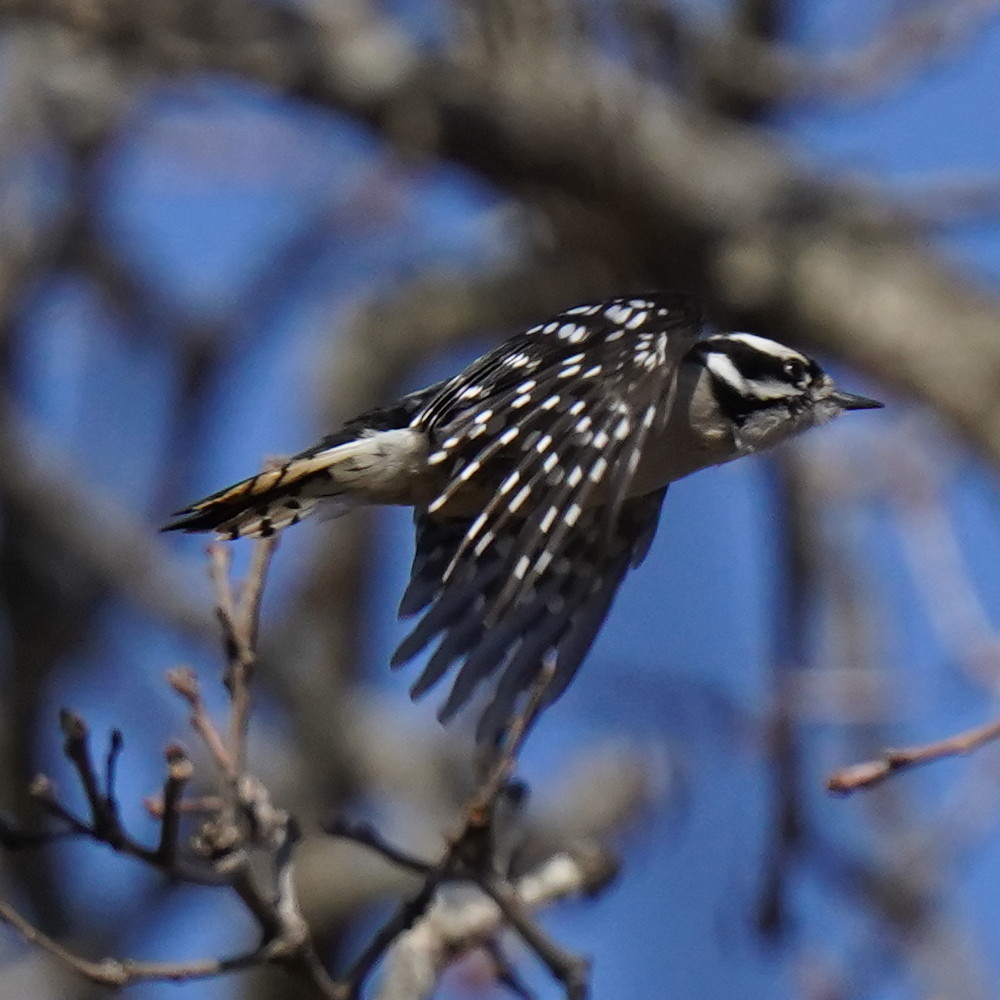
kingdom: Animalia
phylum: Chordata
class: Aves
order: Piciformes
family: Picidae
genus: Dryobates
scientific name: Dryobates pubescens
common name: Downy woodpecker
